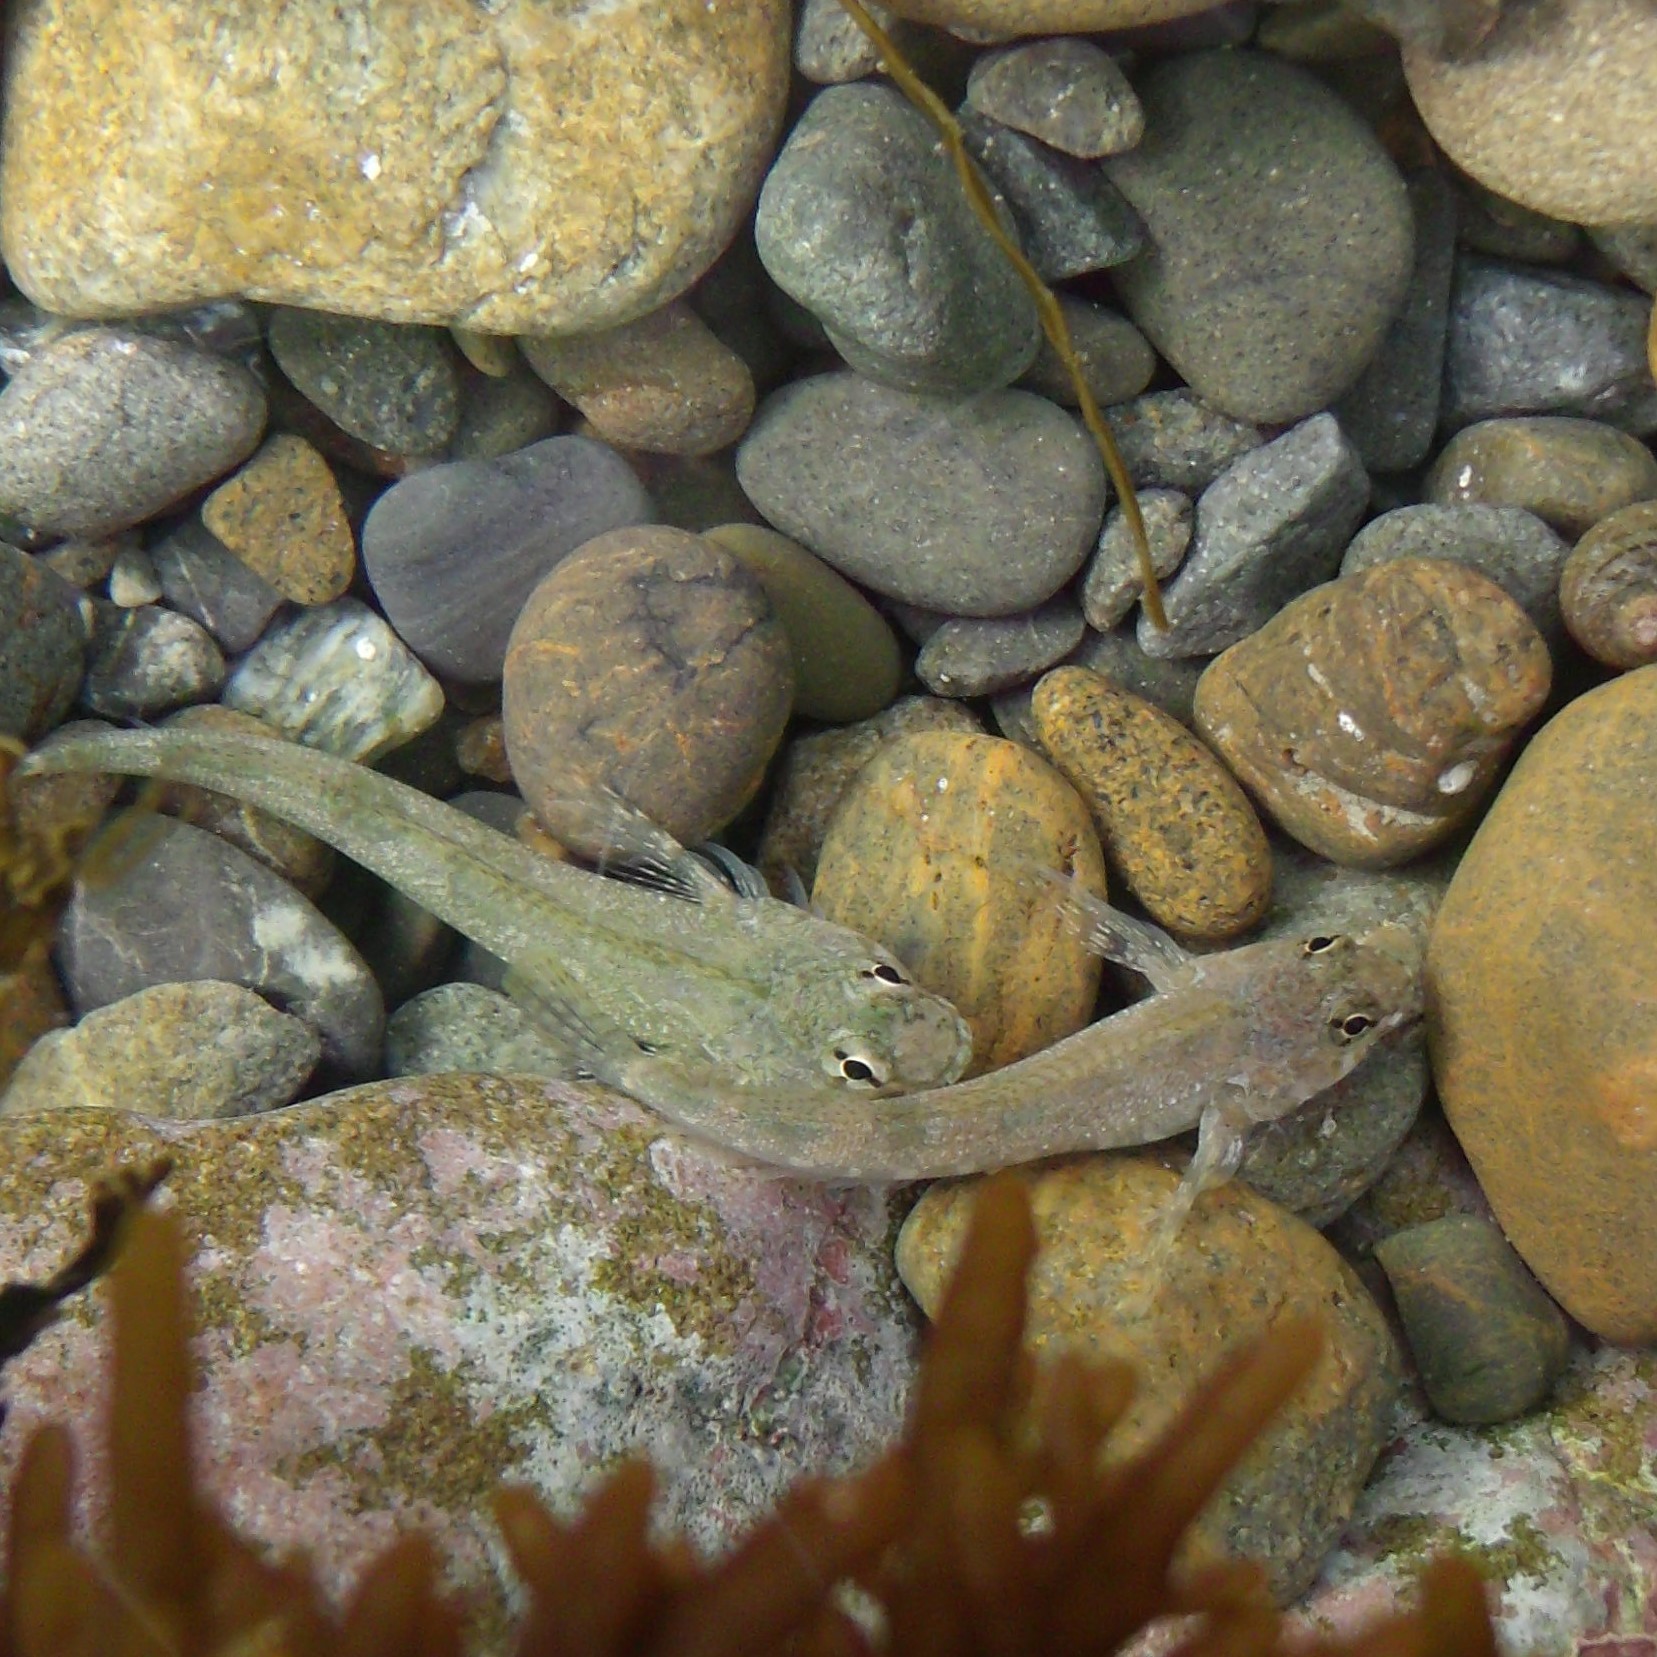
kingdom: Animalia
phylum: Chordata
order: Perciformes
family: Tripterygiidae
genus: Bellapiscis
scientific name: Bellapiscis medius
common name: Twister
